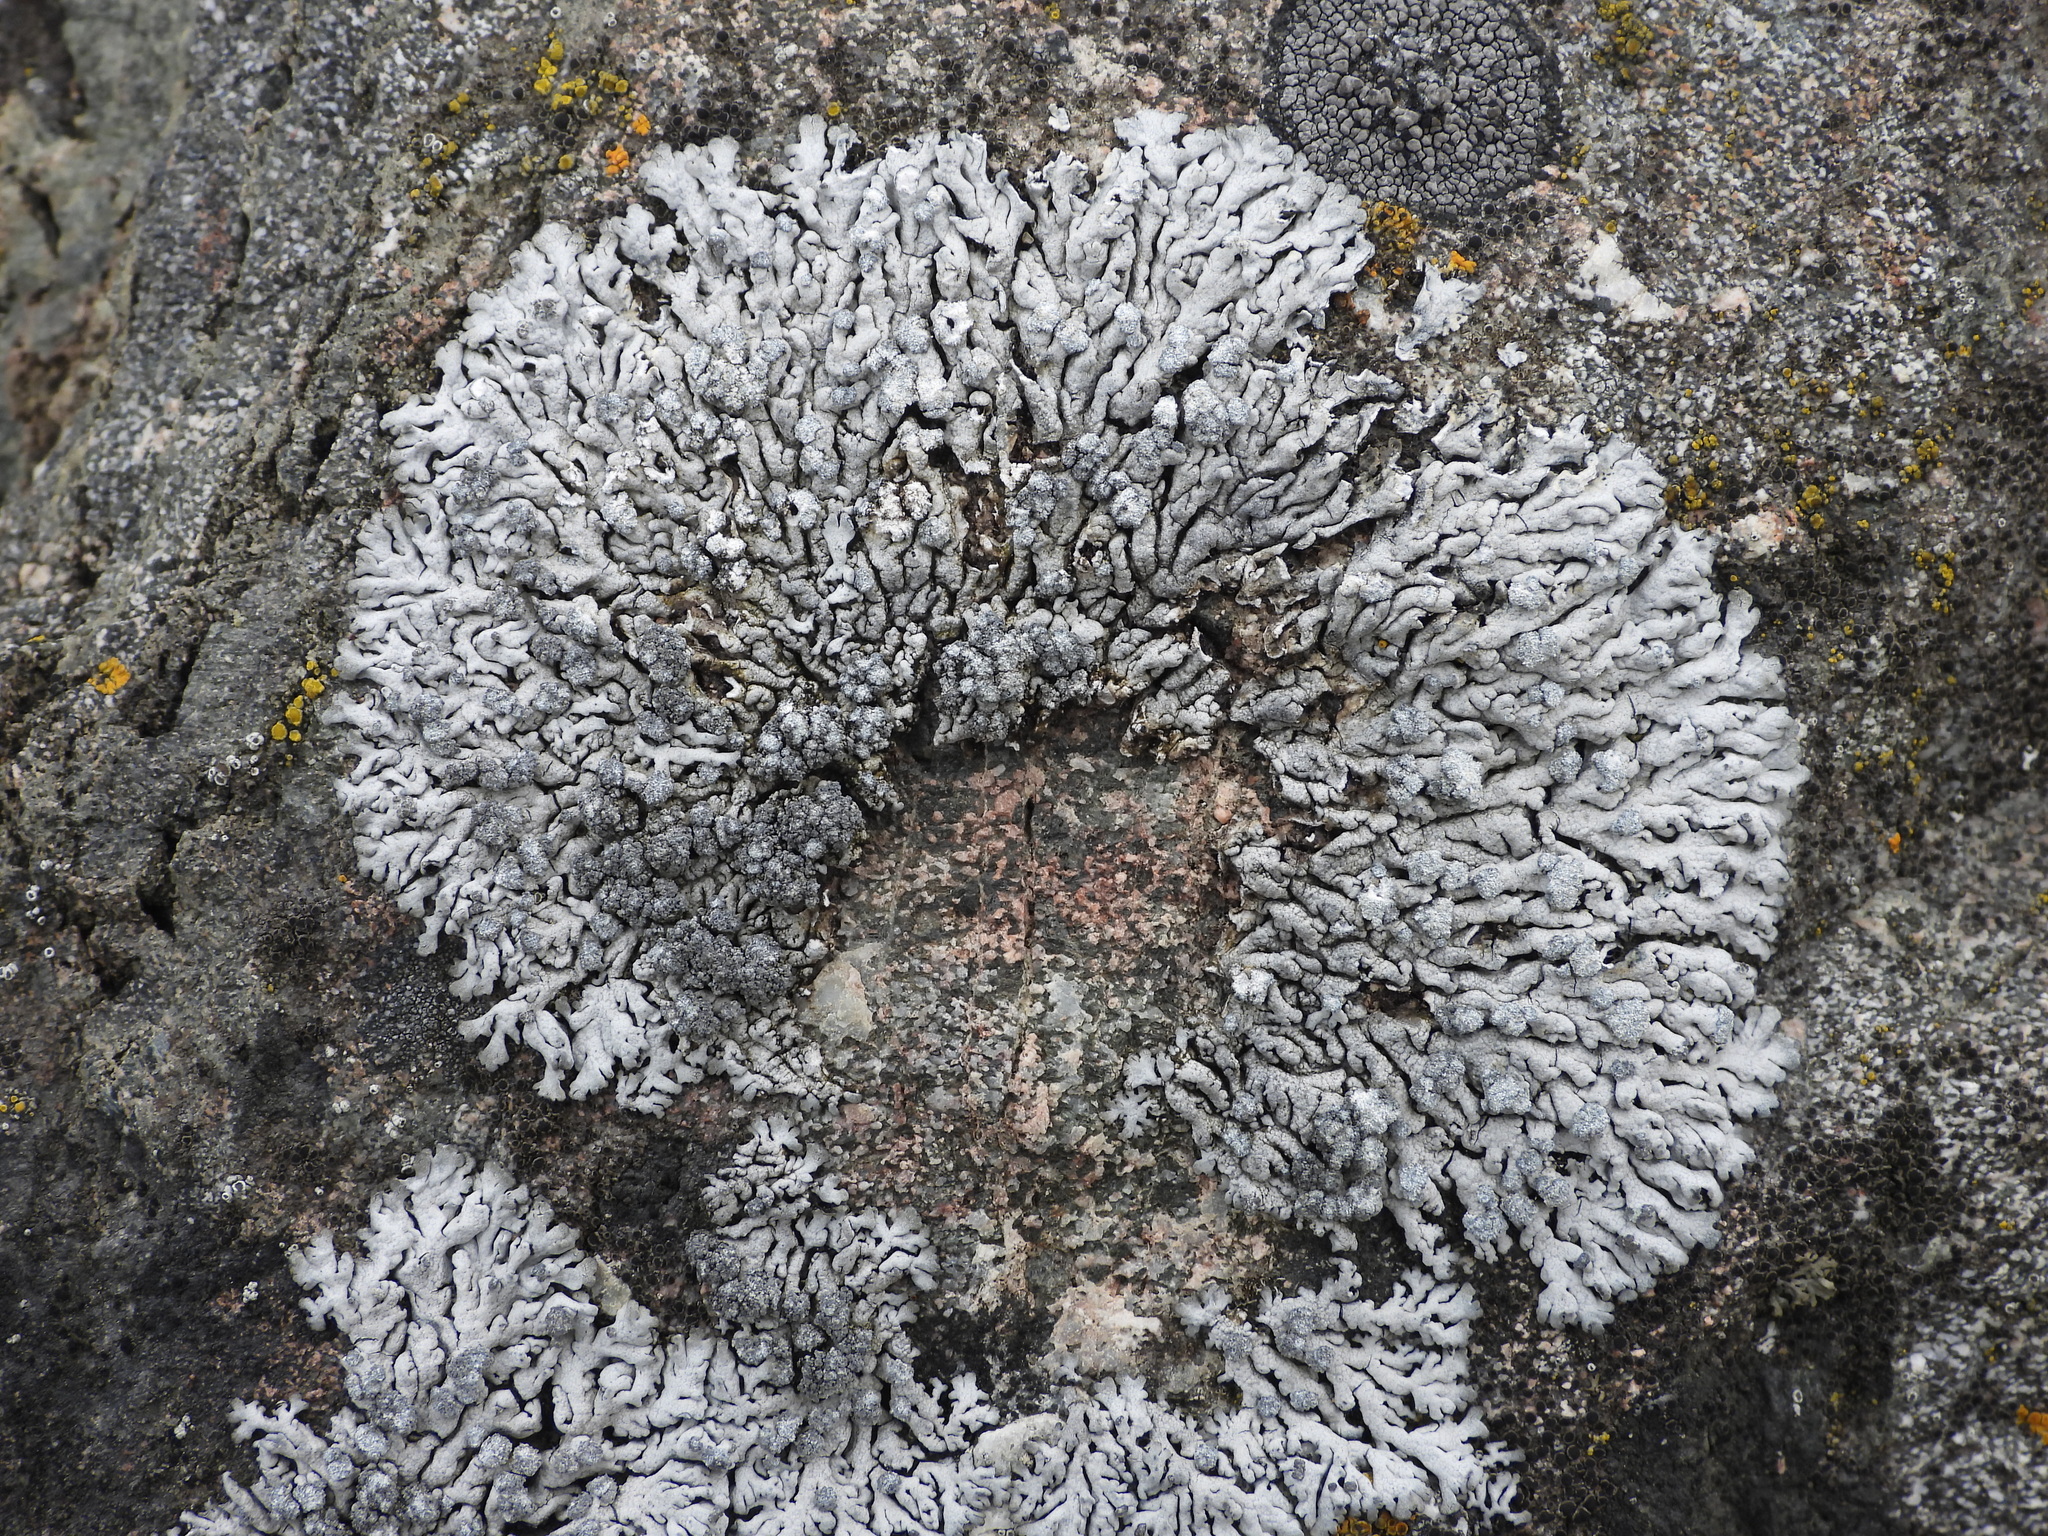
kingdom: Fungi
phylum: Ascomycota
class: Lecanoromycetes
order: Caliciales
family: Physciaceae
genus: Physcia
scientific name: Physcia caesia
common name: Blue-gray rosette lichen
